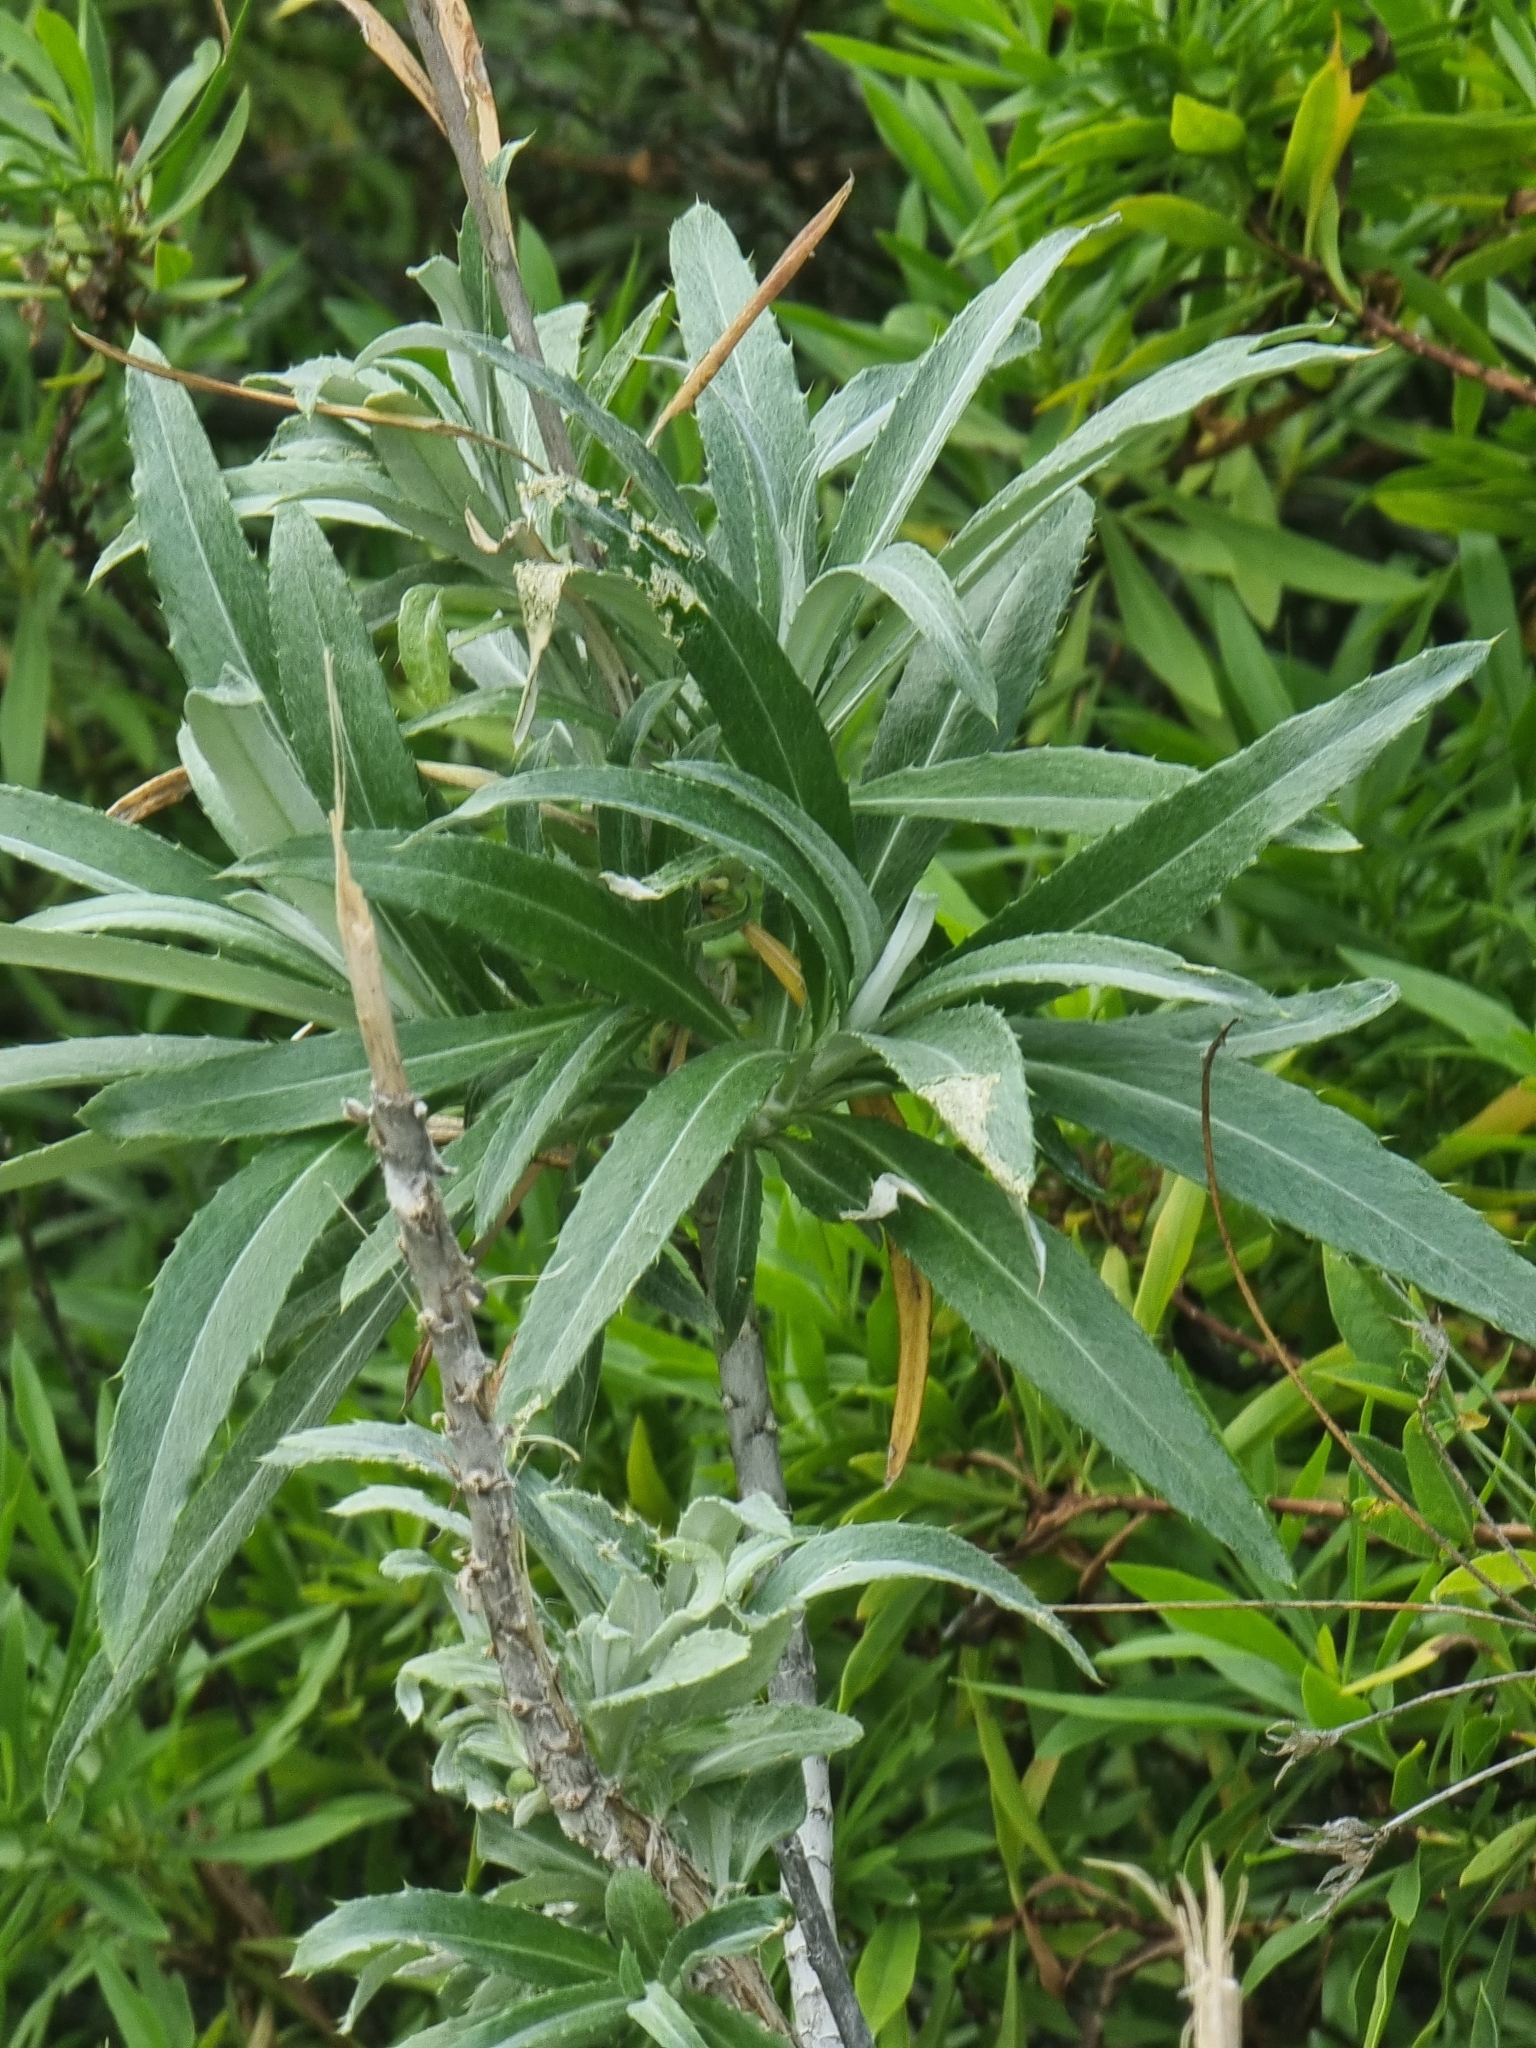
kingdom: Plantae
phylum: Tracheophyta
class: Magnoliopsida
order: Asterales
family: Asteraceae
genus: Carlina
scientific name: Carlina salicifolia
